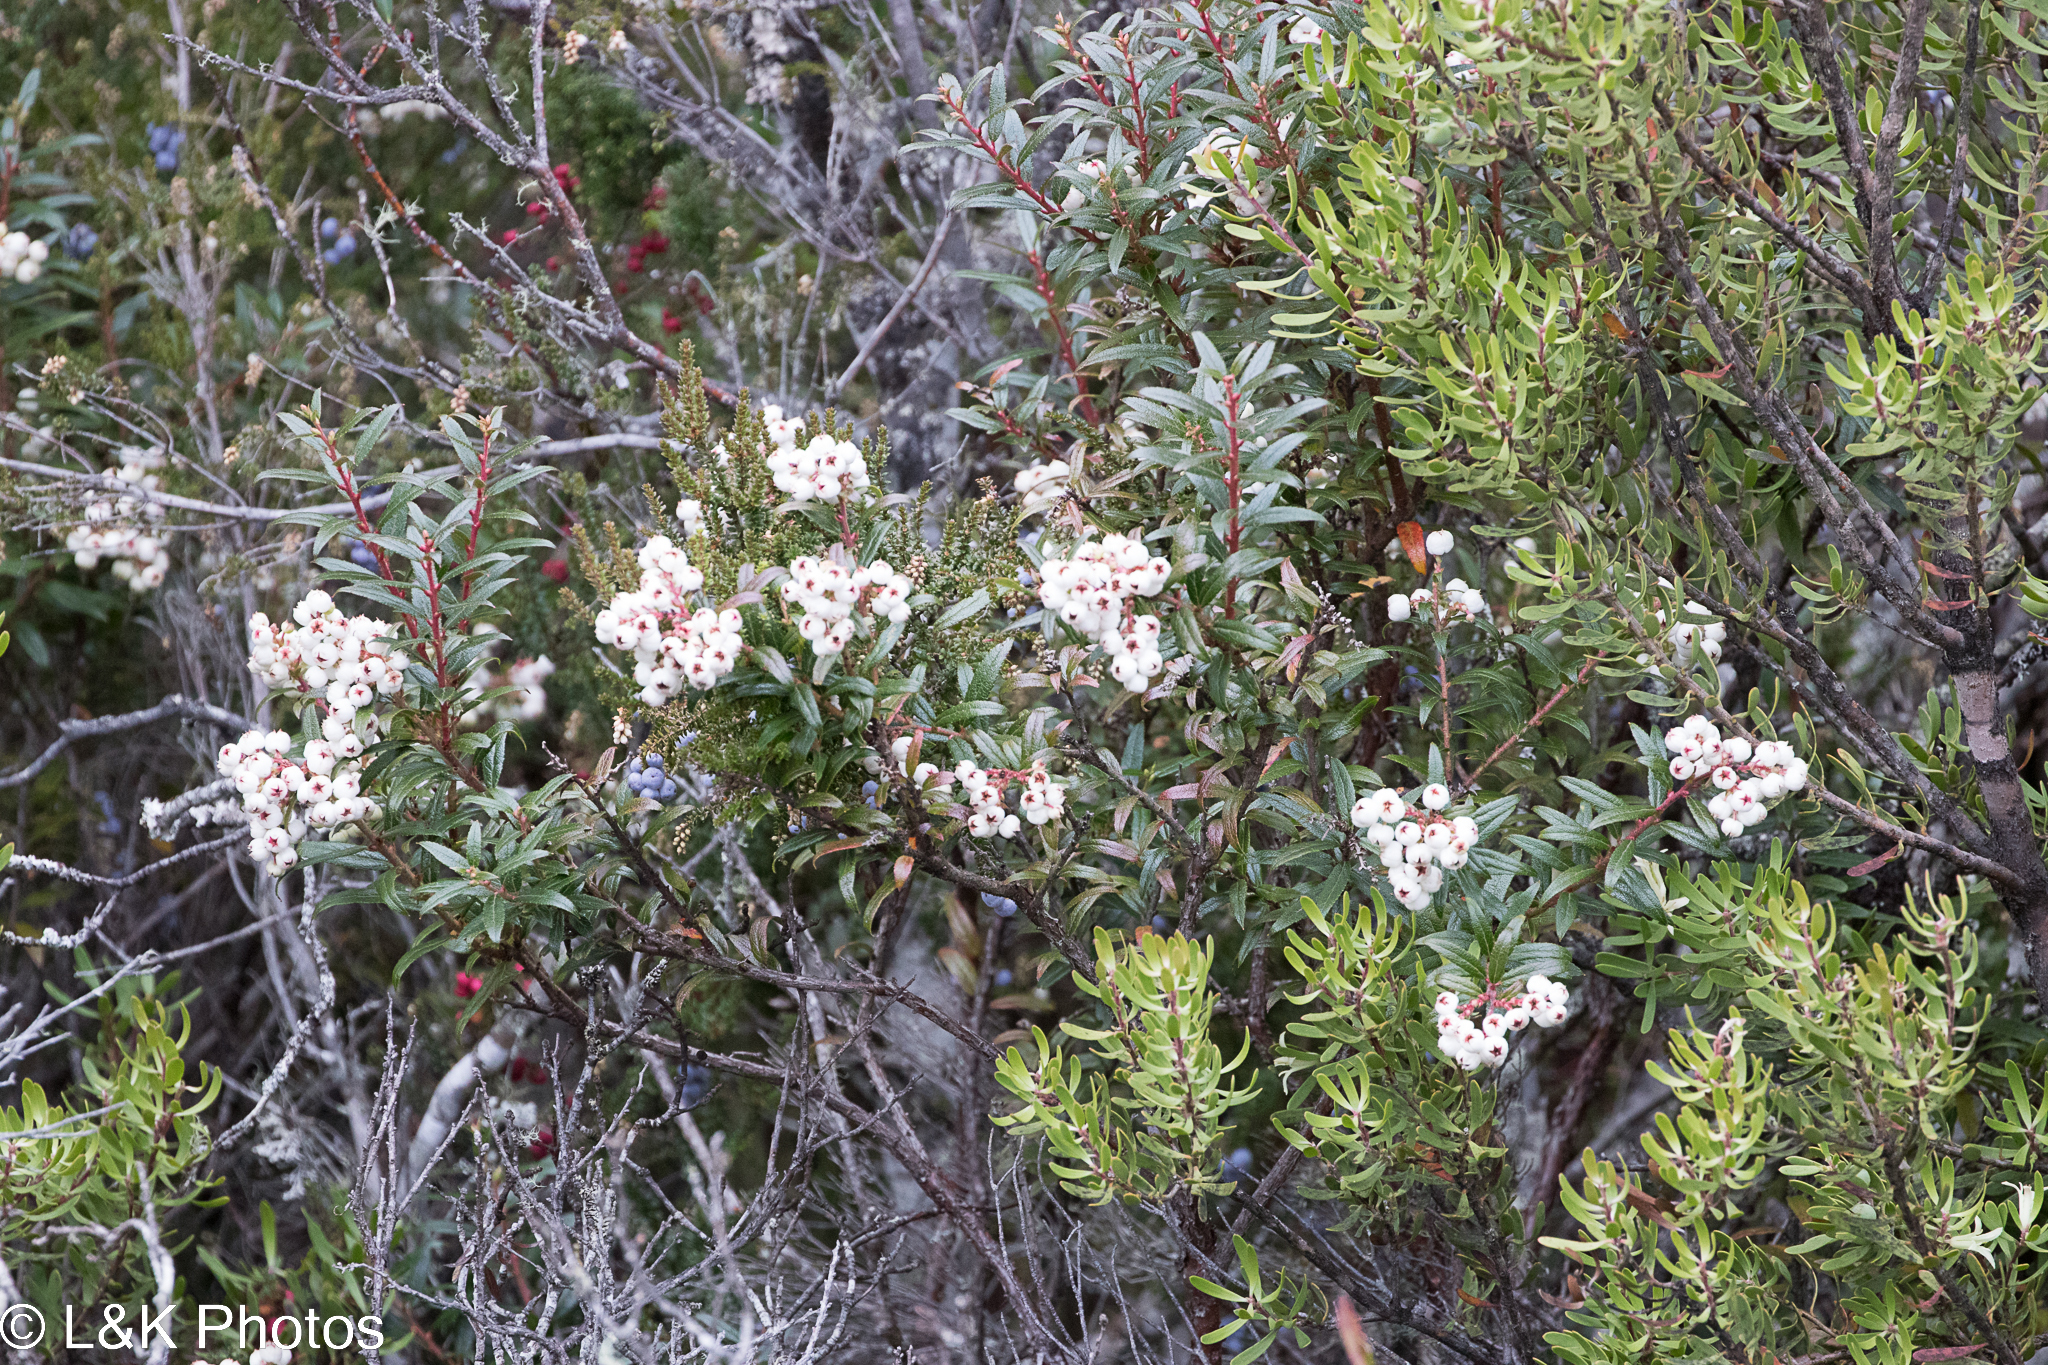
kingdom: Plantae
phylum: Tracheophyta
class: Magnoliopsida
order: Ericales
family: Ericaceae
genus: Gaultheria
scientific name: Gaultheria hispida
